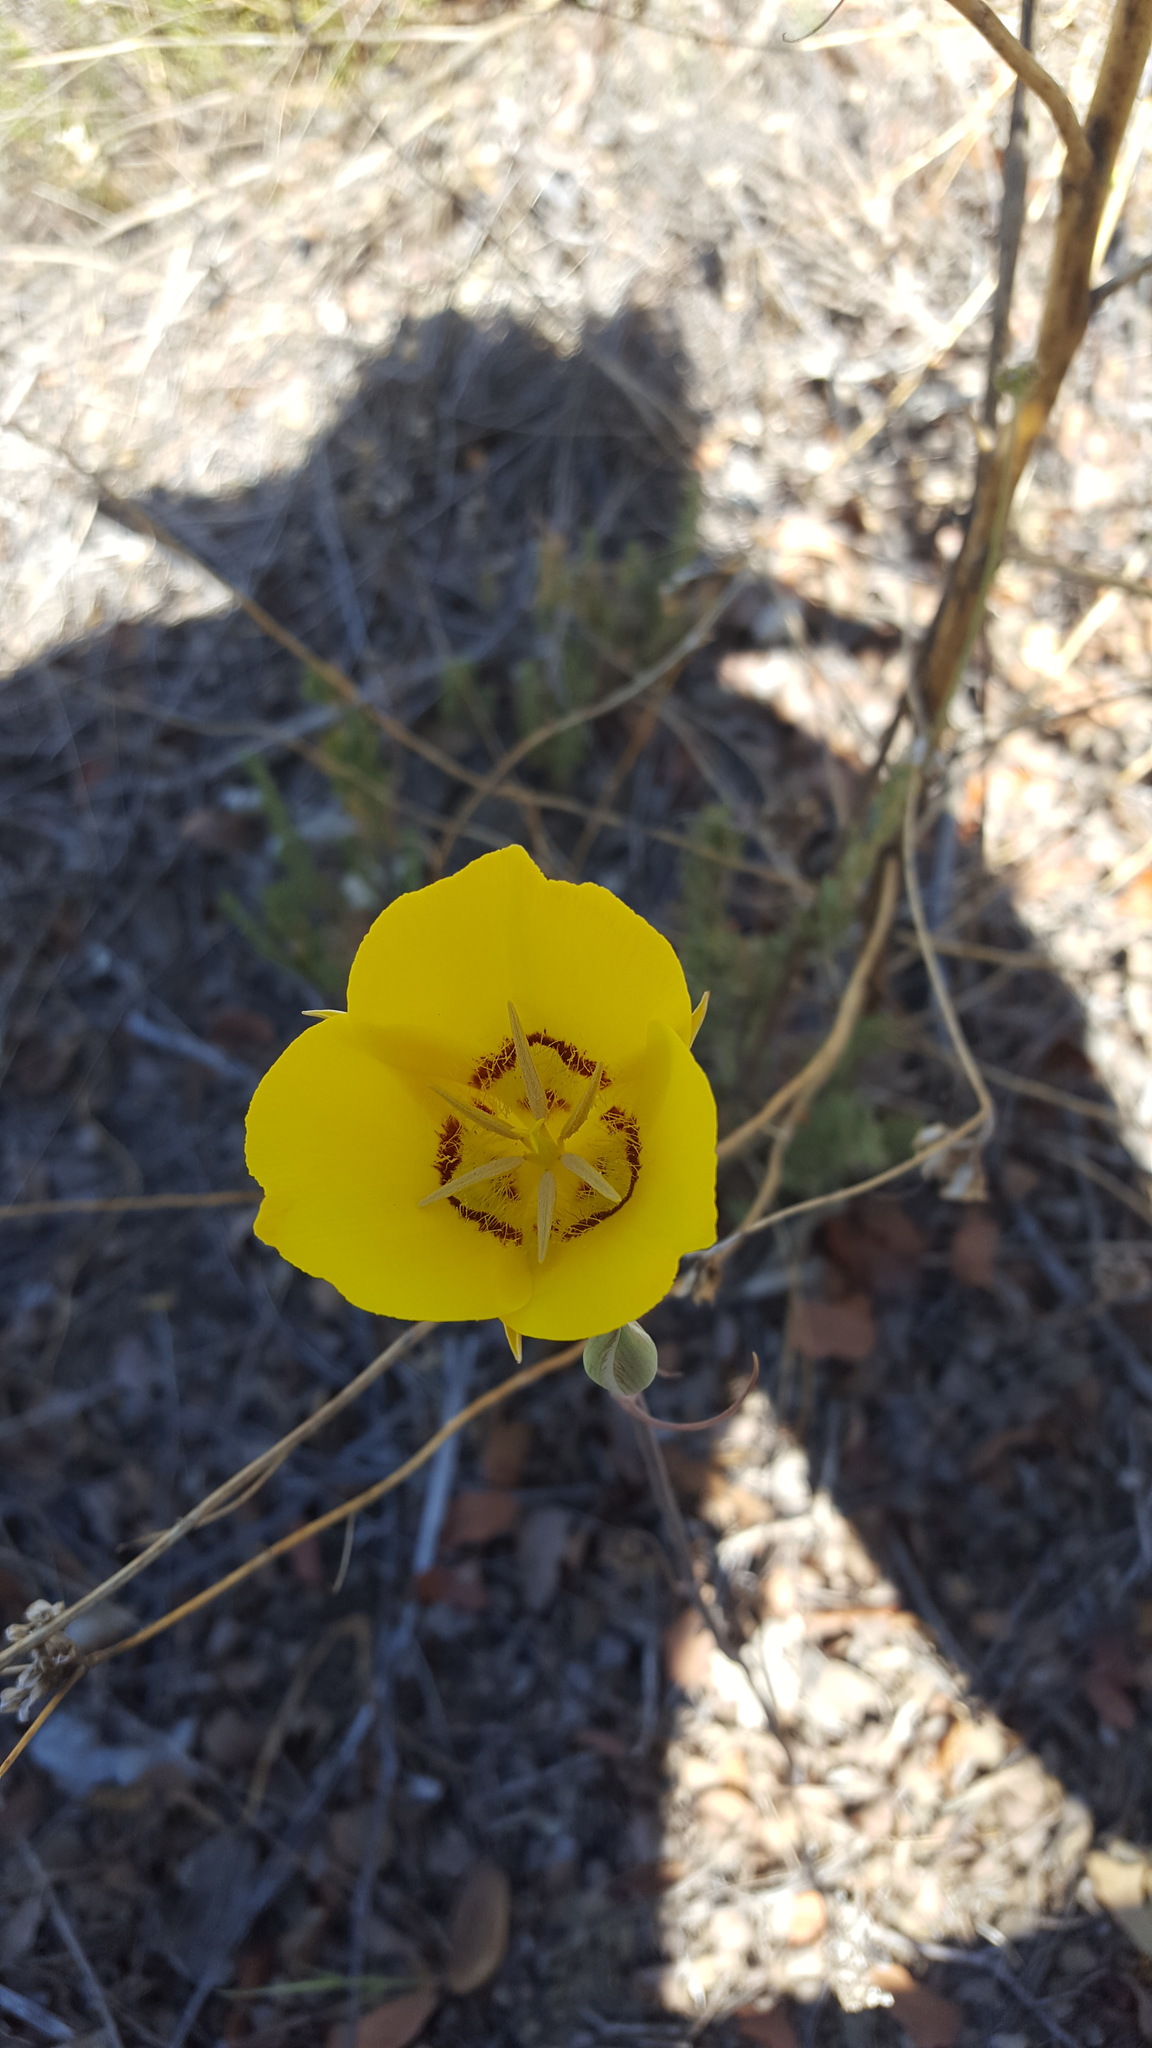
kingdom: Plantae
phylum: Tracheophyta
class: Liliopsida
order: Liliales
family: Liliaceae
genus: Calochortus
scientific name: Calochortus concolor
